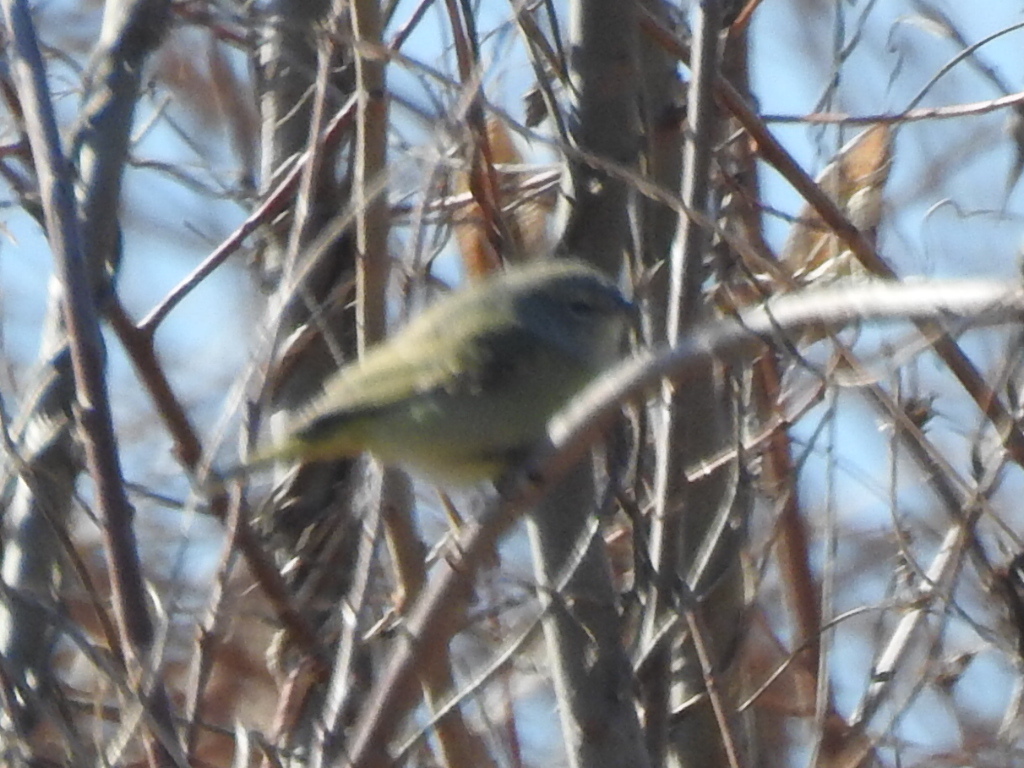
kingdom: Animalia
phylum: Chordata
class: Aves
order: Passeriformes
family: Parulidae
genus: Leiothlypis
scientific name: Leiothlypis celata
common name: Orange-crowned warbler
